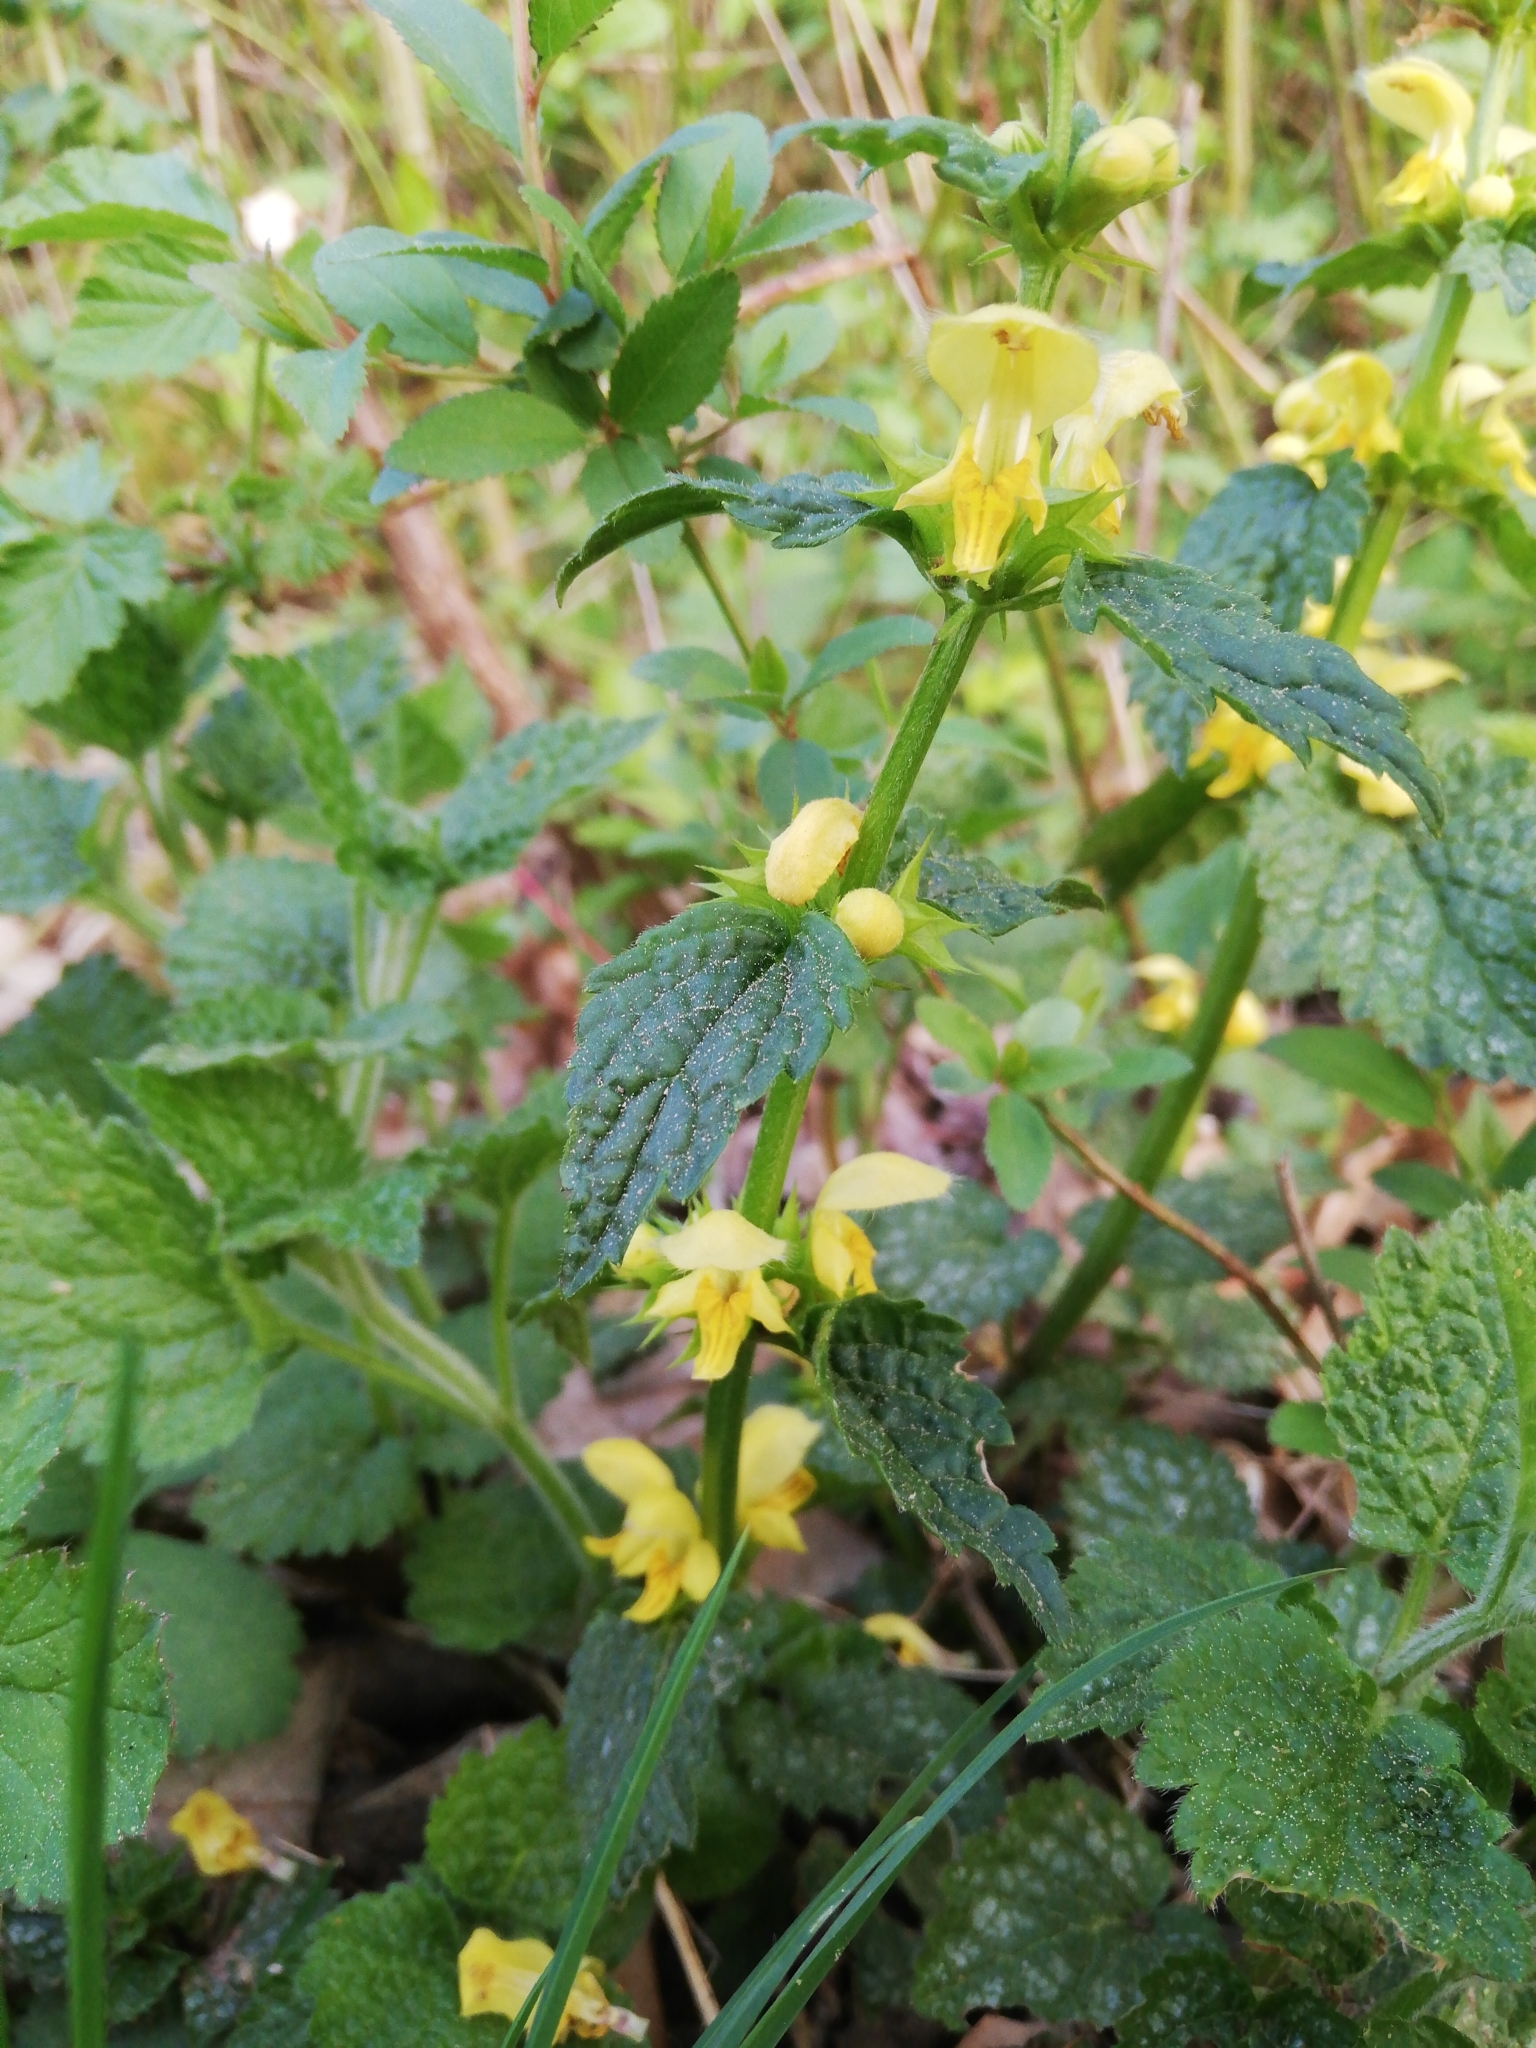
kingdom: Plantae
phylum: Tracheophyta
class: Magnoliopsida
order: Lamiales
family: Lamiaceae
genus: Lamium
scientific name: Lamium galeobdolon
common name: Yellow archangel
